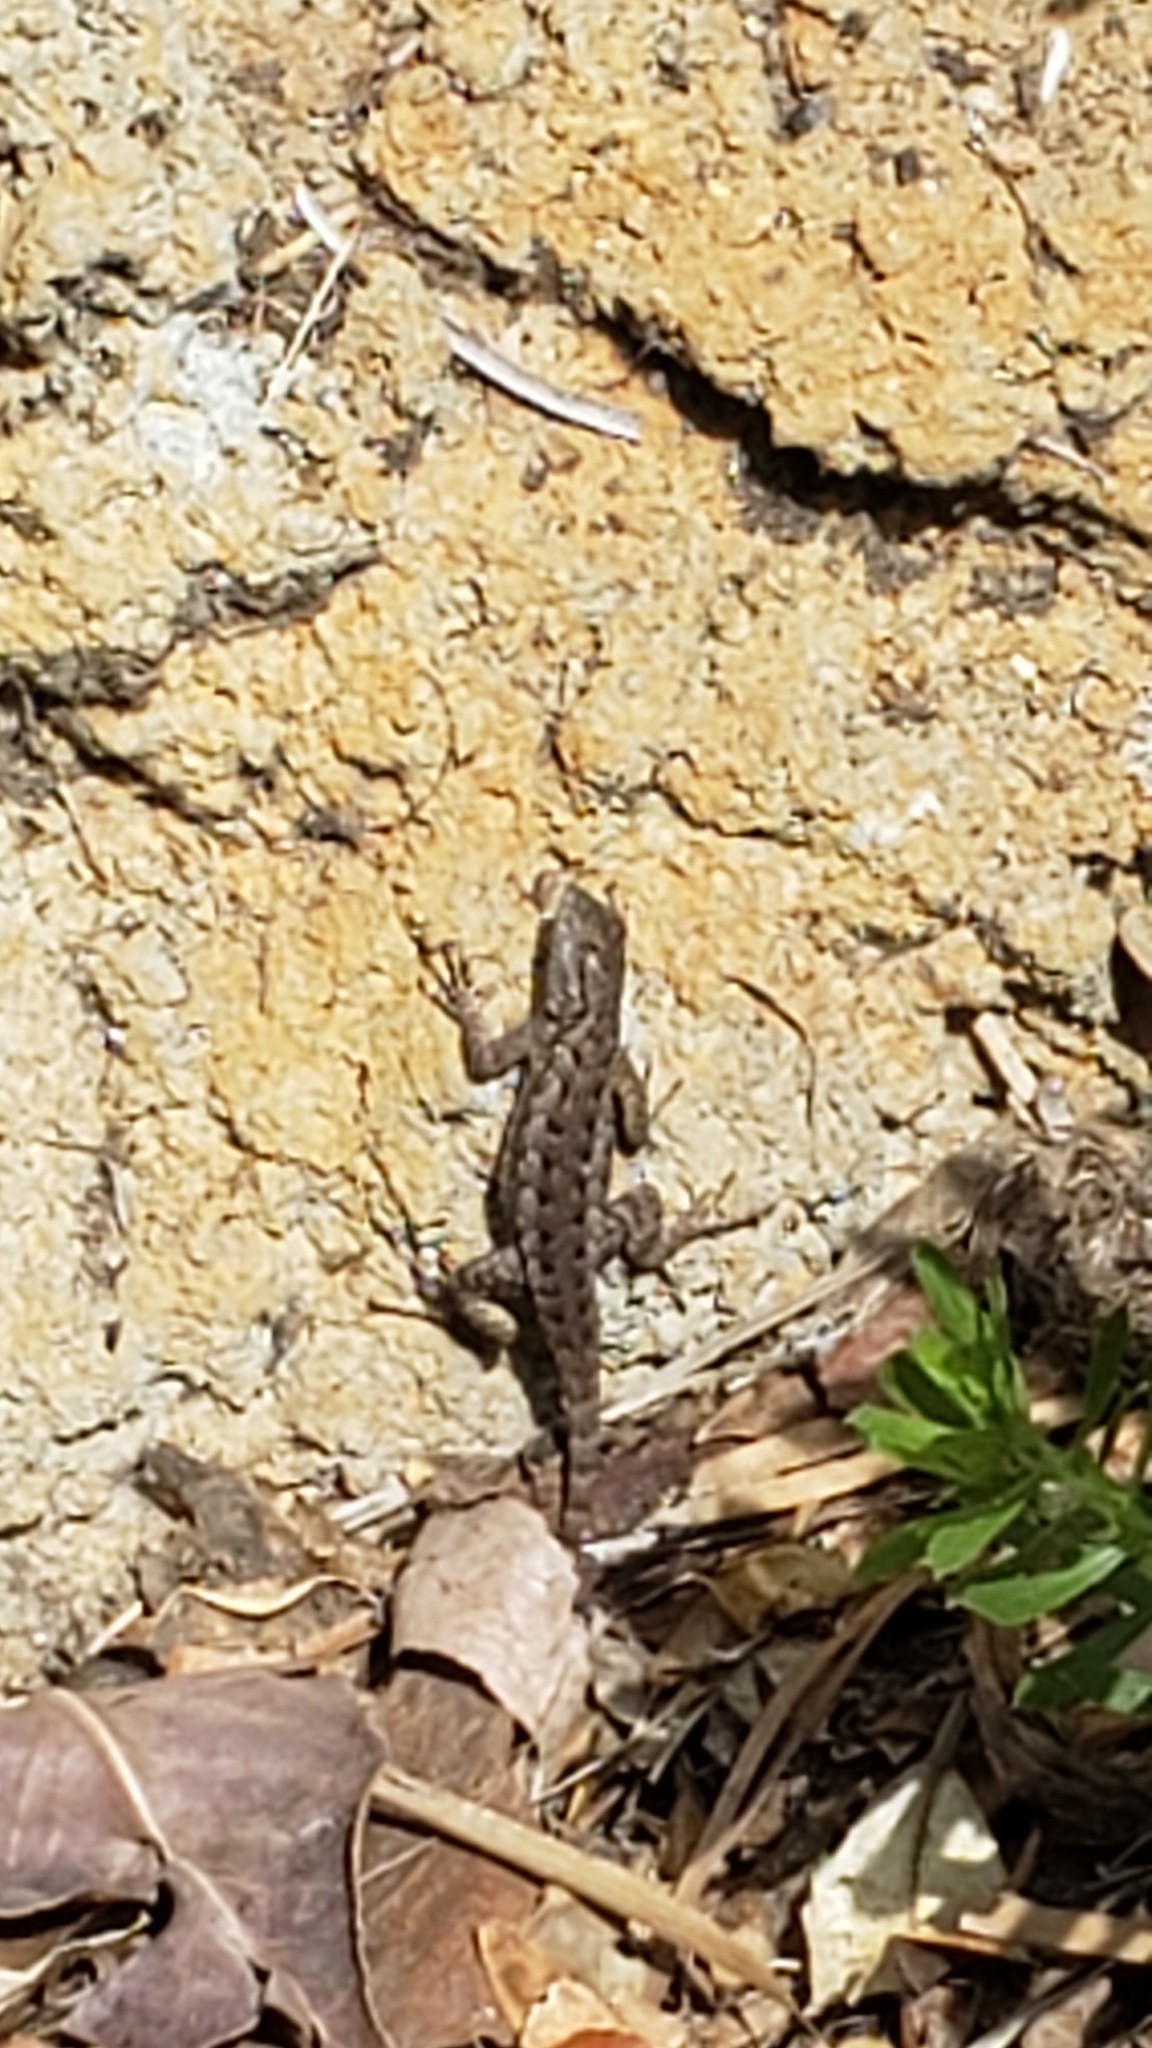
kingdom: Animalia
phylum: Chordata
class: Squamata
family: Phrynosomatidae
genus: Sceloporus
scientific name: Sceloporus occidentalis
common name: Western fence lizard
